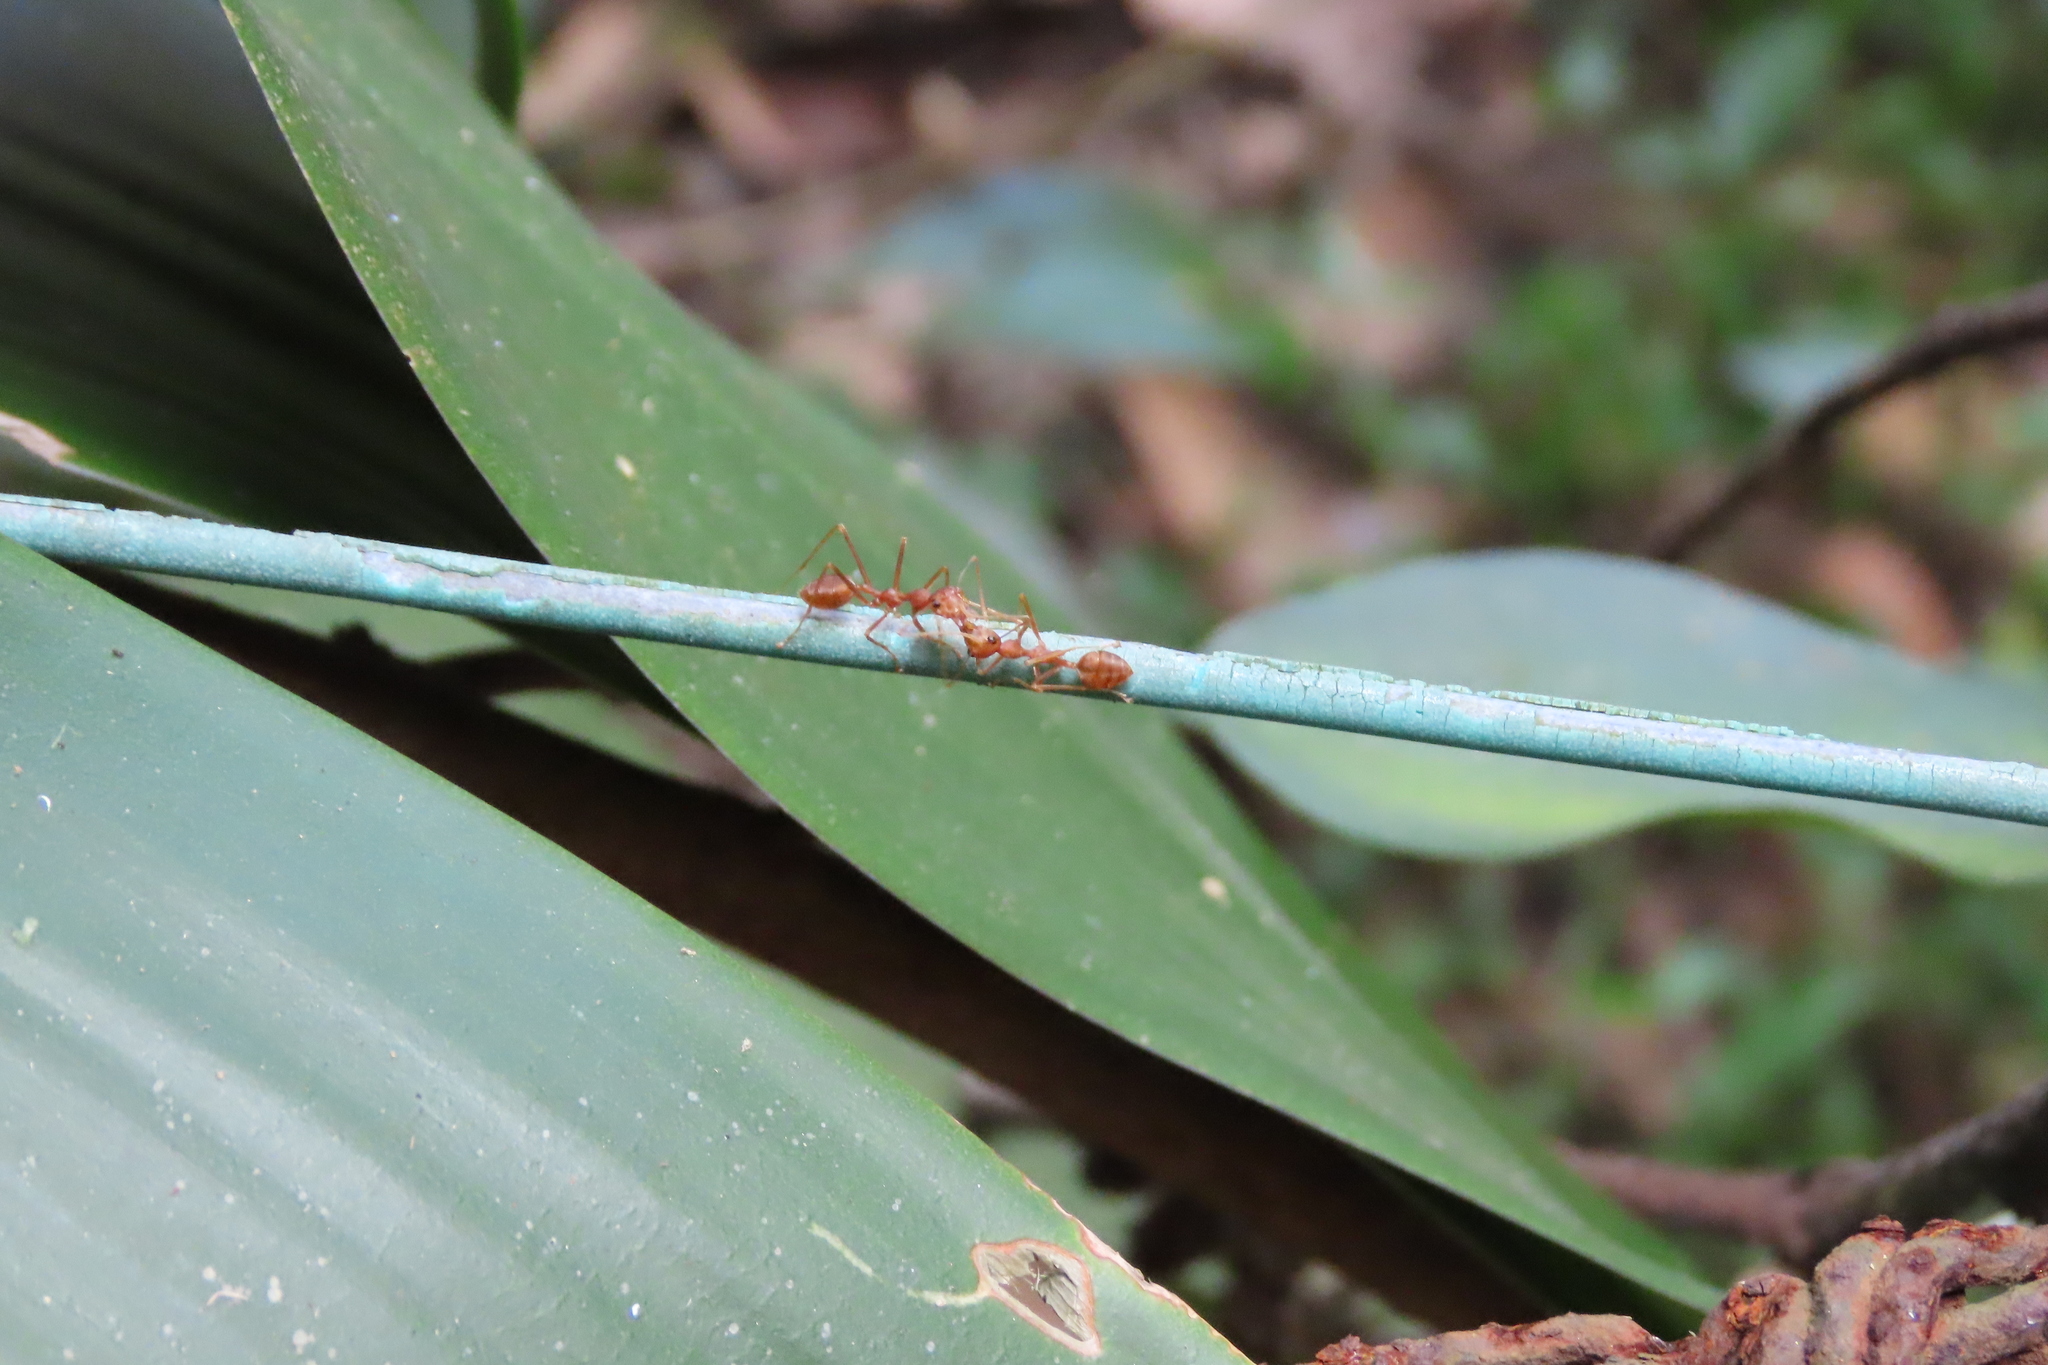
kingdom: Animalia
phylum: Arthropoda
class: Insecta
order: Hymenoptera
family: Formicidae
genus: Oecophylla
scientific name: Oecophylla smaragdina
